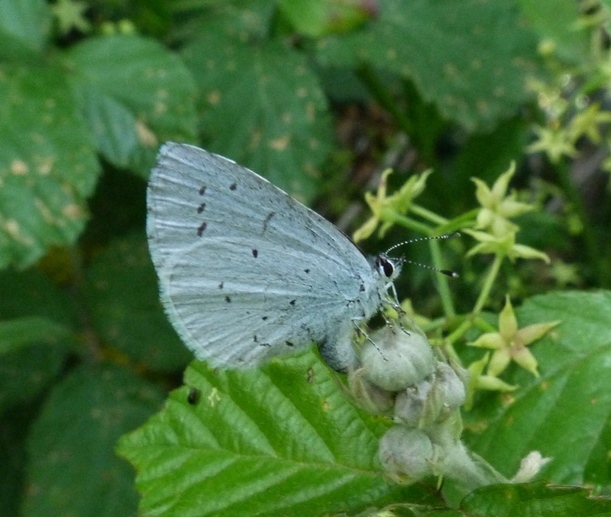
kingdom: Animalia
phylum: Arthropoda
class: Insecta
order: Lepidoptera
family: Lycaenidae
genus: Celastrina
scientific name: Celastrina argiolus
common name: Holly blue
